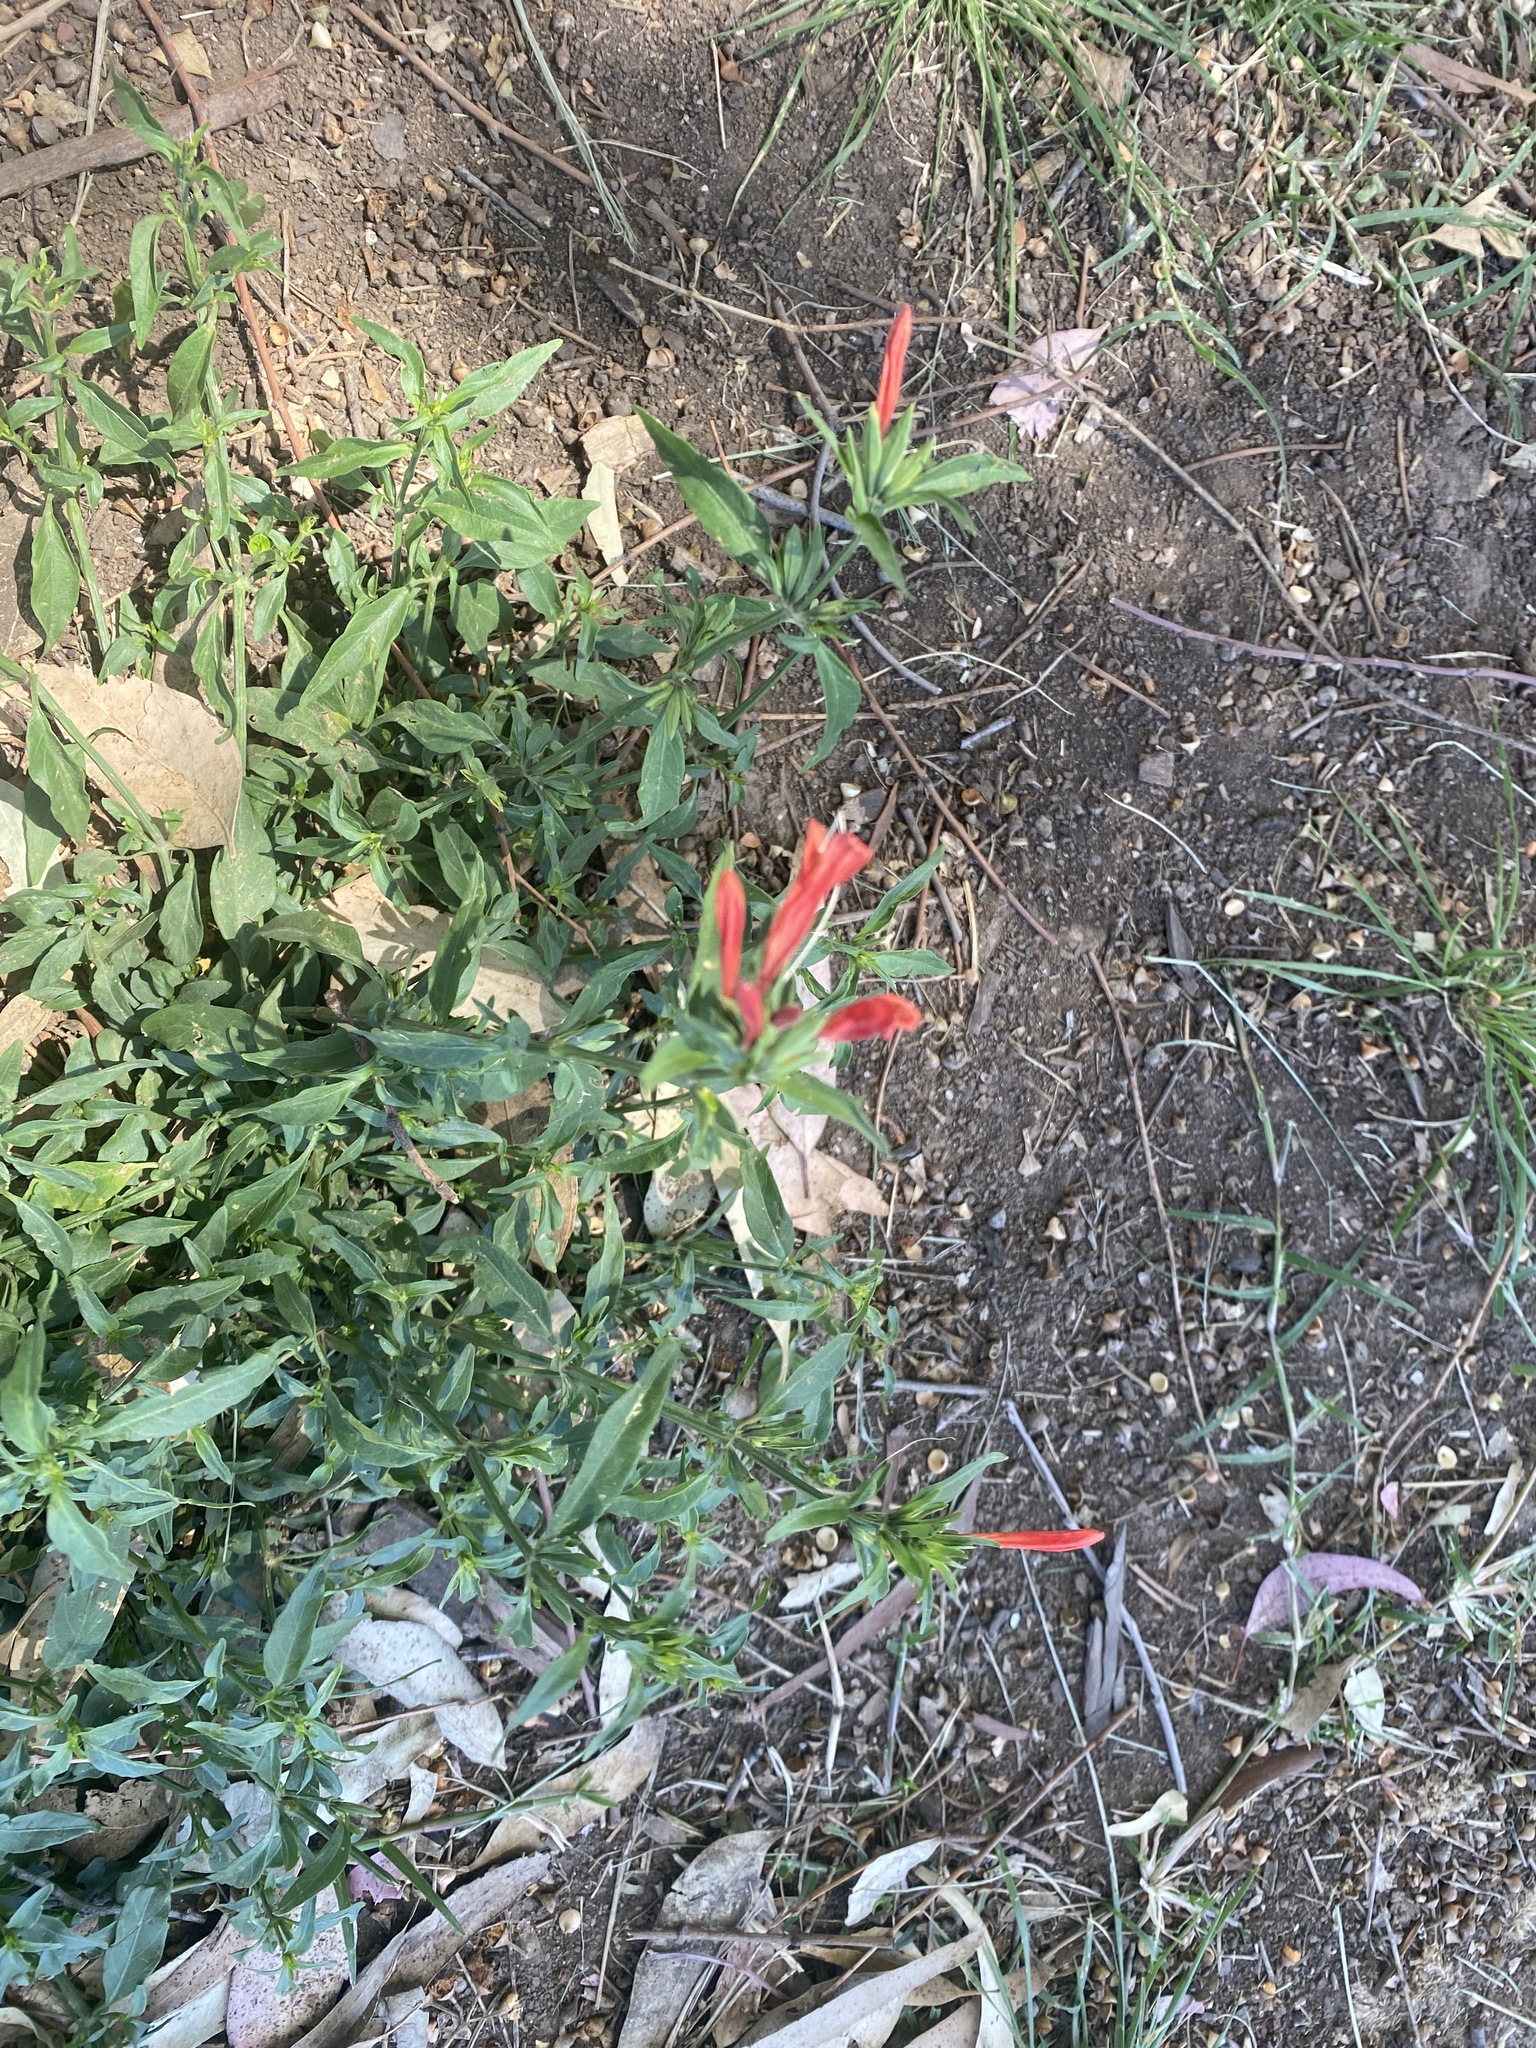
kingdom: Plantae
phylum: Tracheophyta
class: Magnoliopsida
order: Lamiales
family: Acanthaceae
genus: Dicliptera
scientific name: Dicliptera squarrosa
